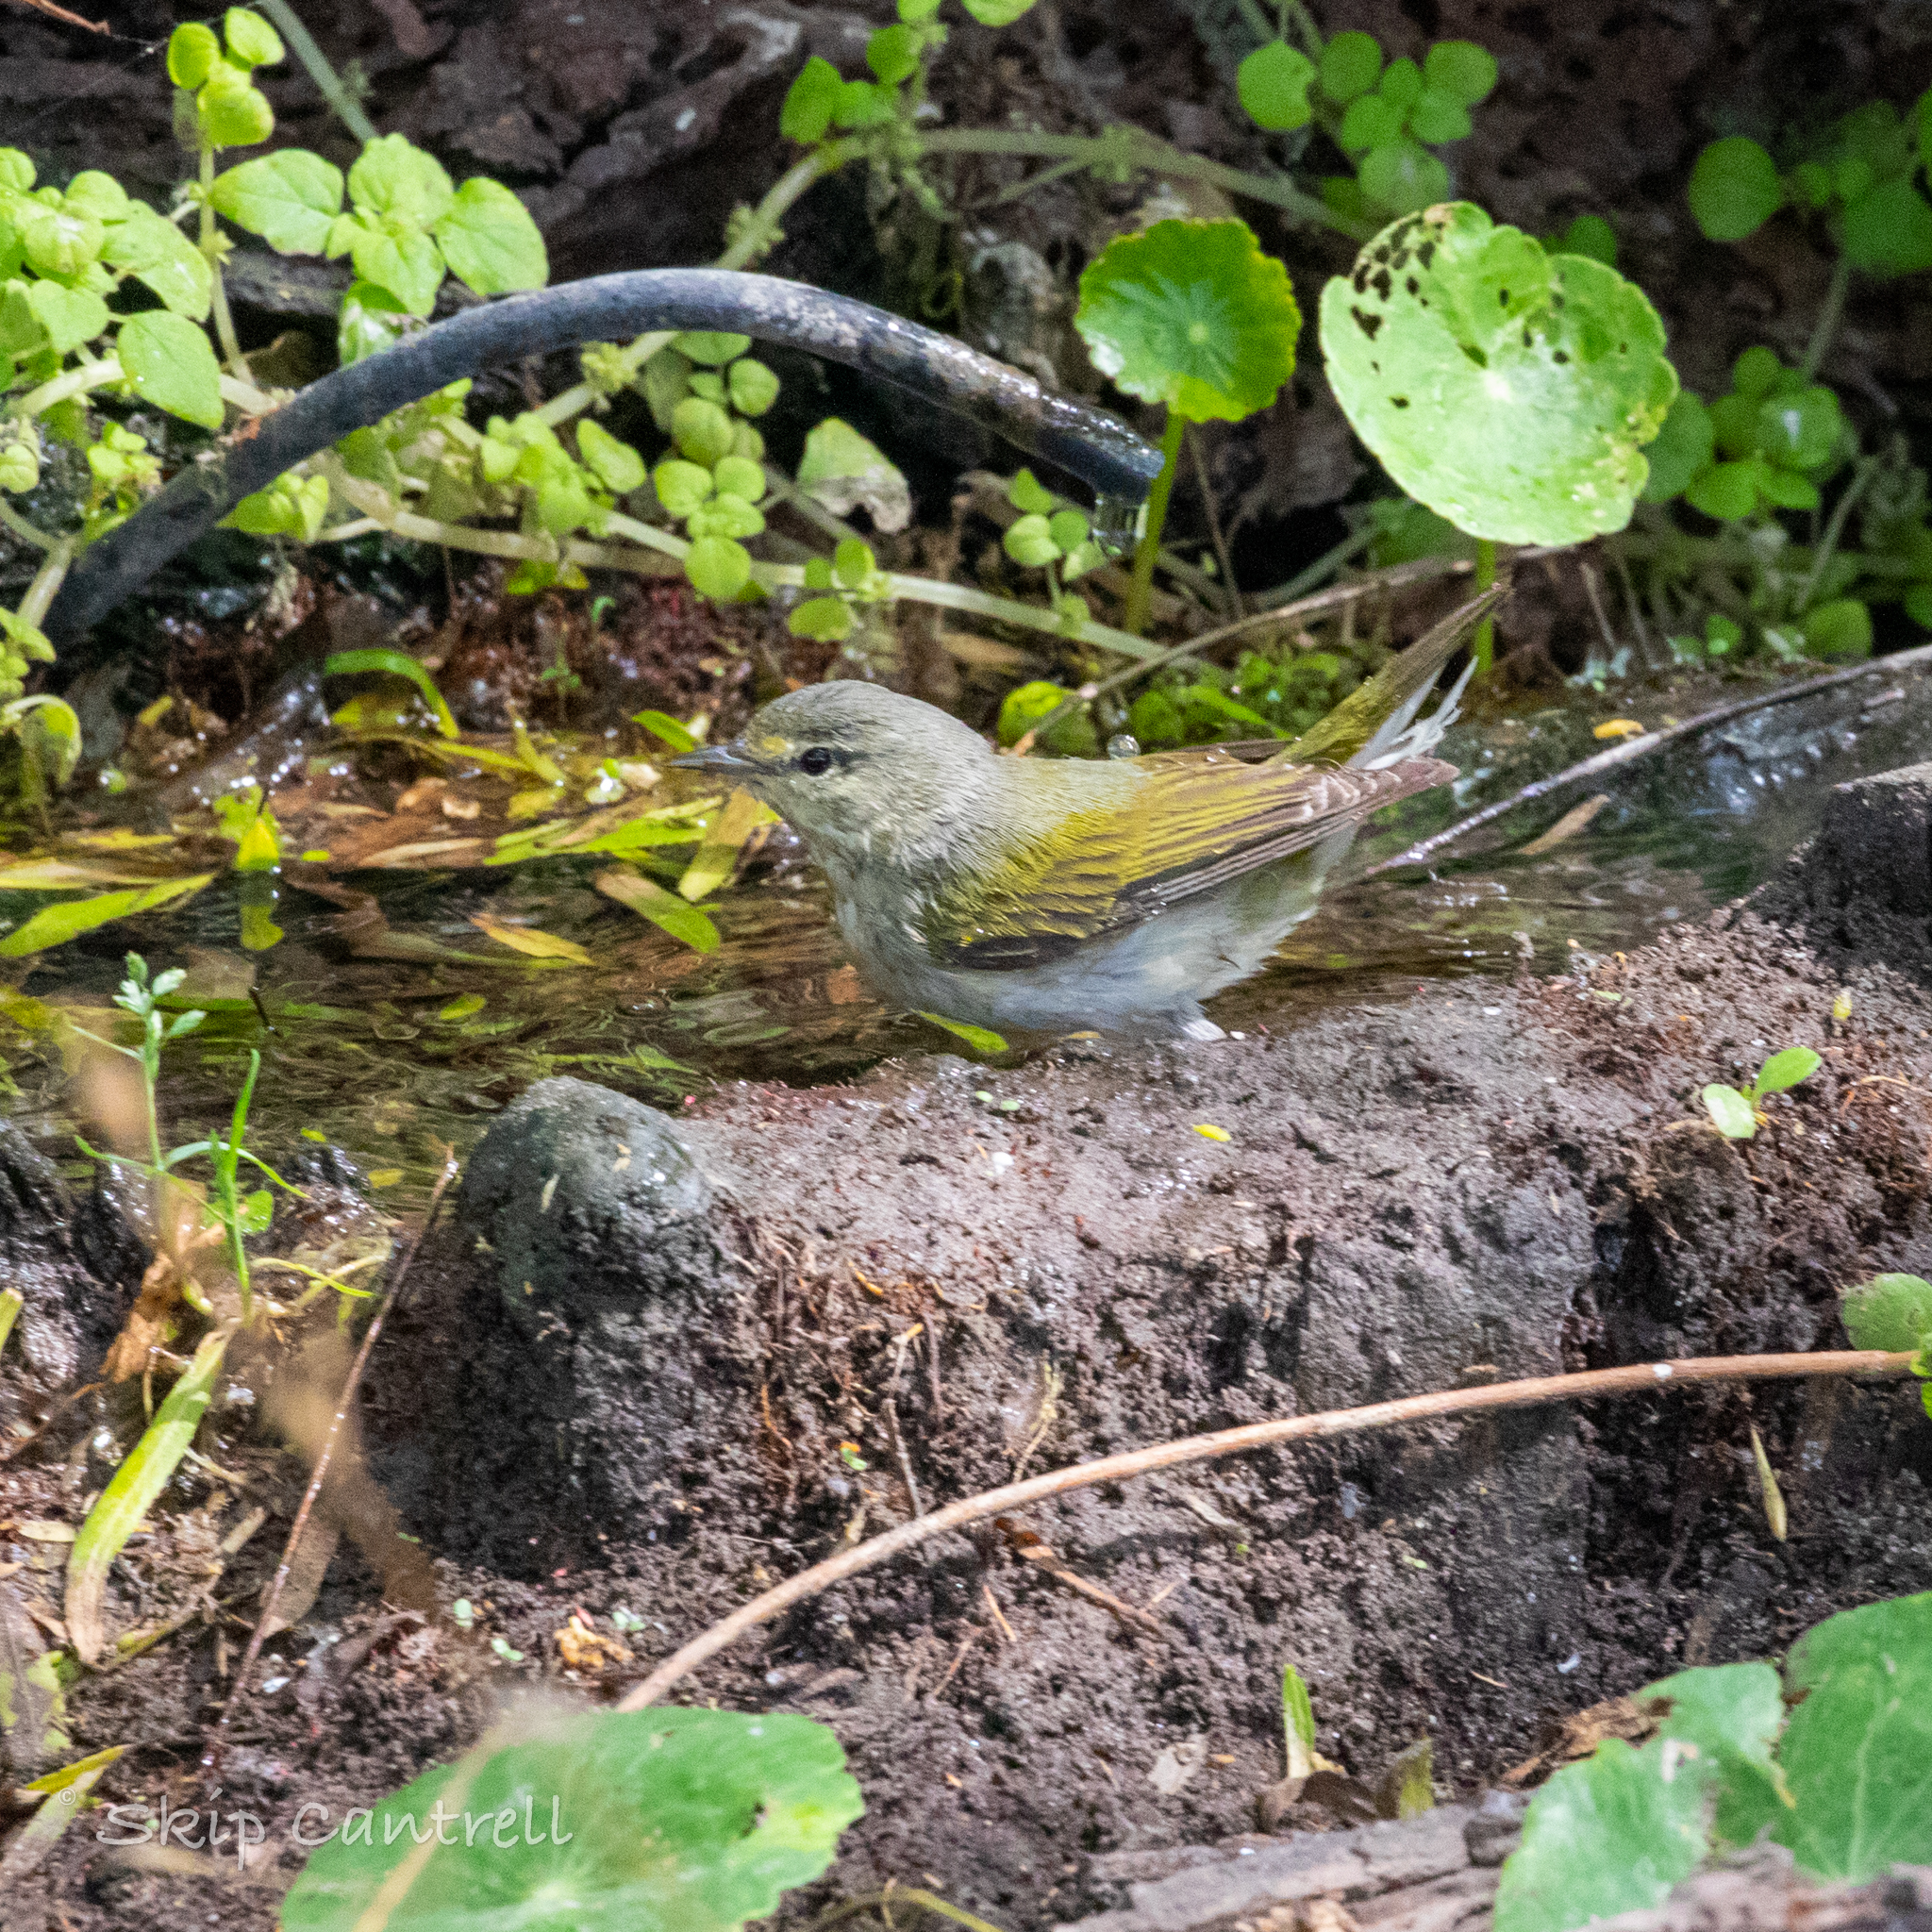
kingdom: Animalia
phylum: Chordata
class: Aves
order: Passeriformes
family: Parulidae
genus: Leiothlypis
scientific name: Leiothlypis peregrina
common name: Tennessee warbler
